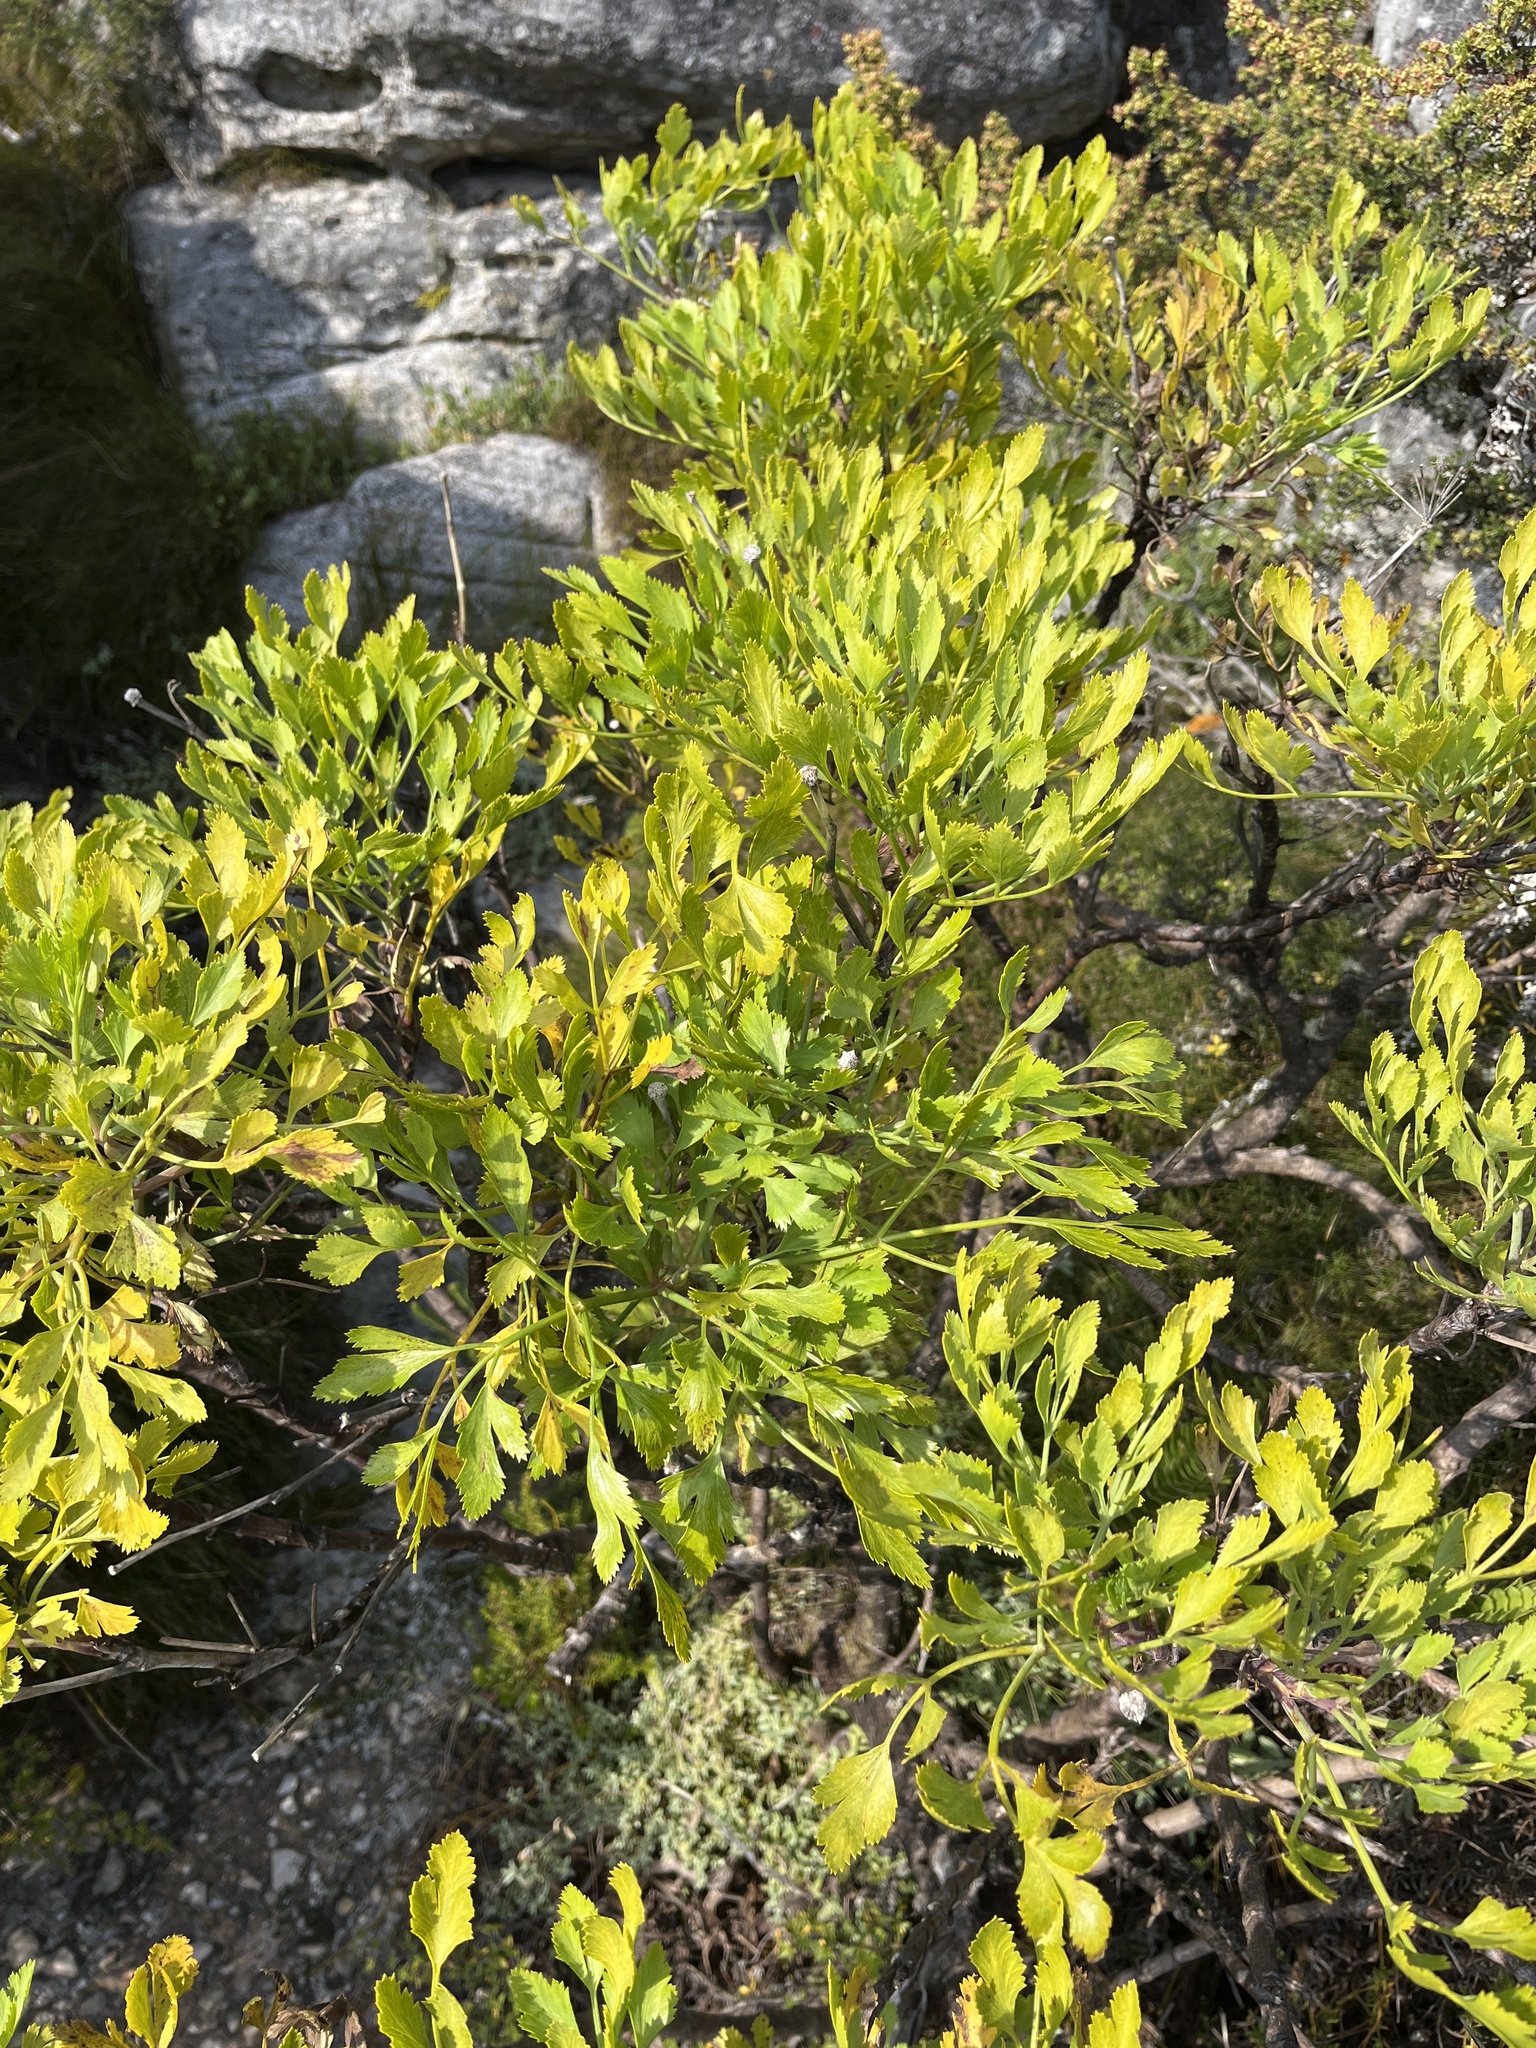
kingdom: Plantae
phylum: Tracheophyta
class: Magnoliopsida
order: Apiales
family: Apiaceae
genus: Notobubon
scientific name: Notobubon galbanum
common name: Blisterbush
